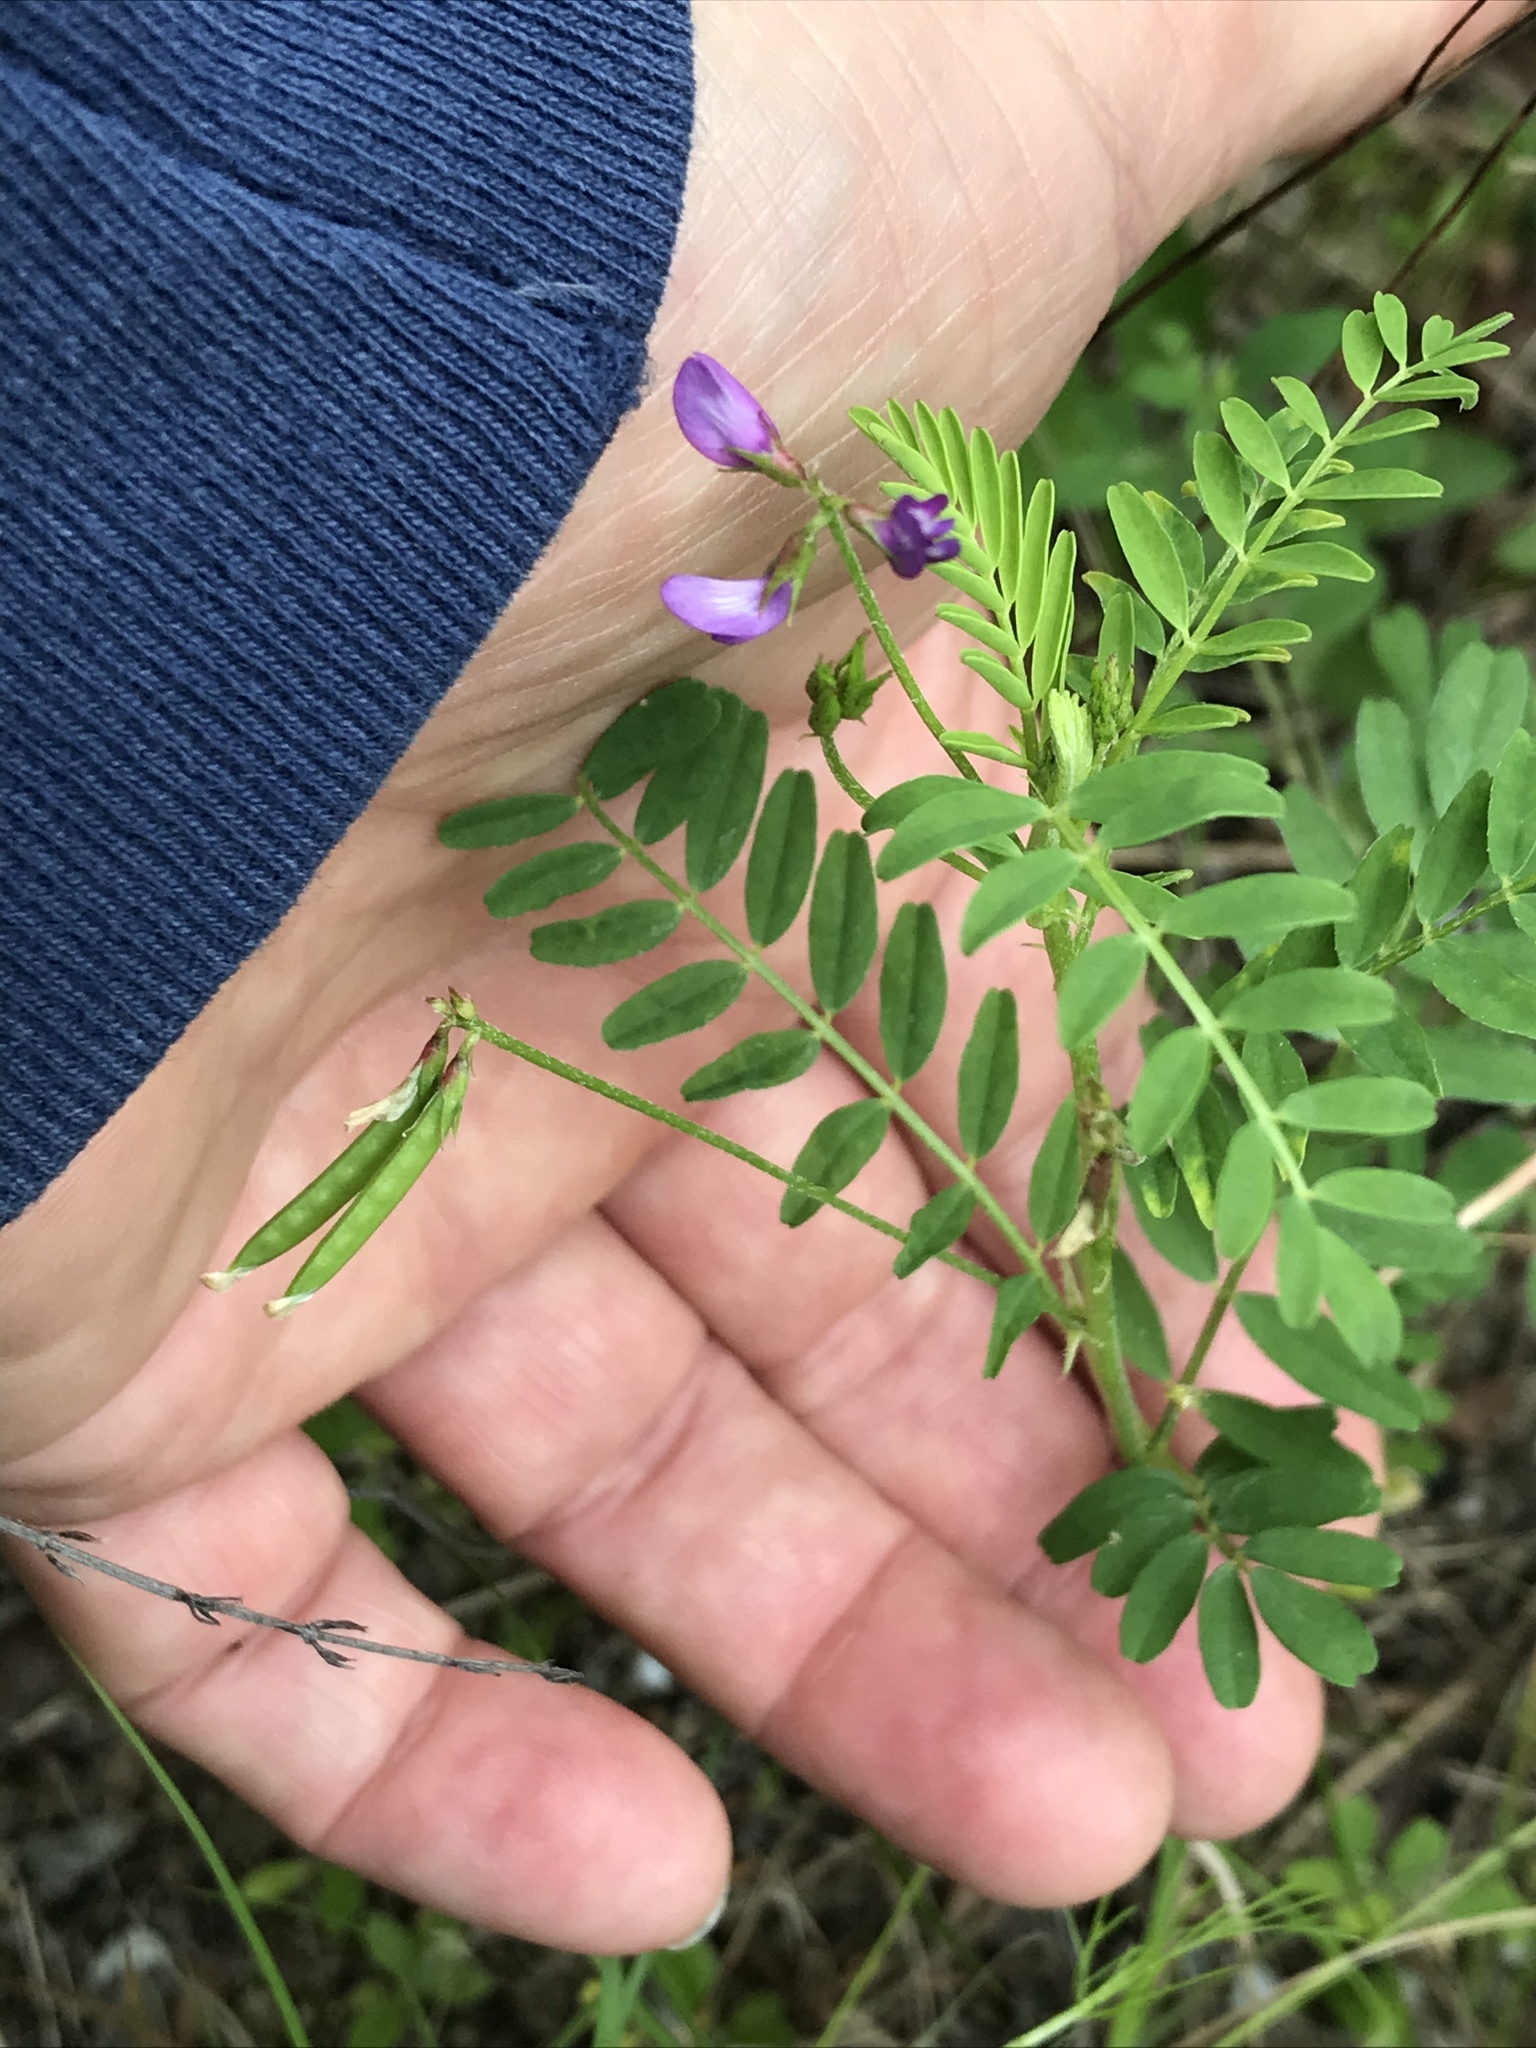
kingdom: Plantae
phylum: Tracheophyta
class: Magnoliopsida
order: Fabales
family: Fabaceae
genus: Astragalus
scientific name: Astragalus leptocarpus
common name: Bodkin milk-vetch
